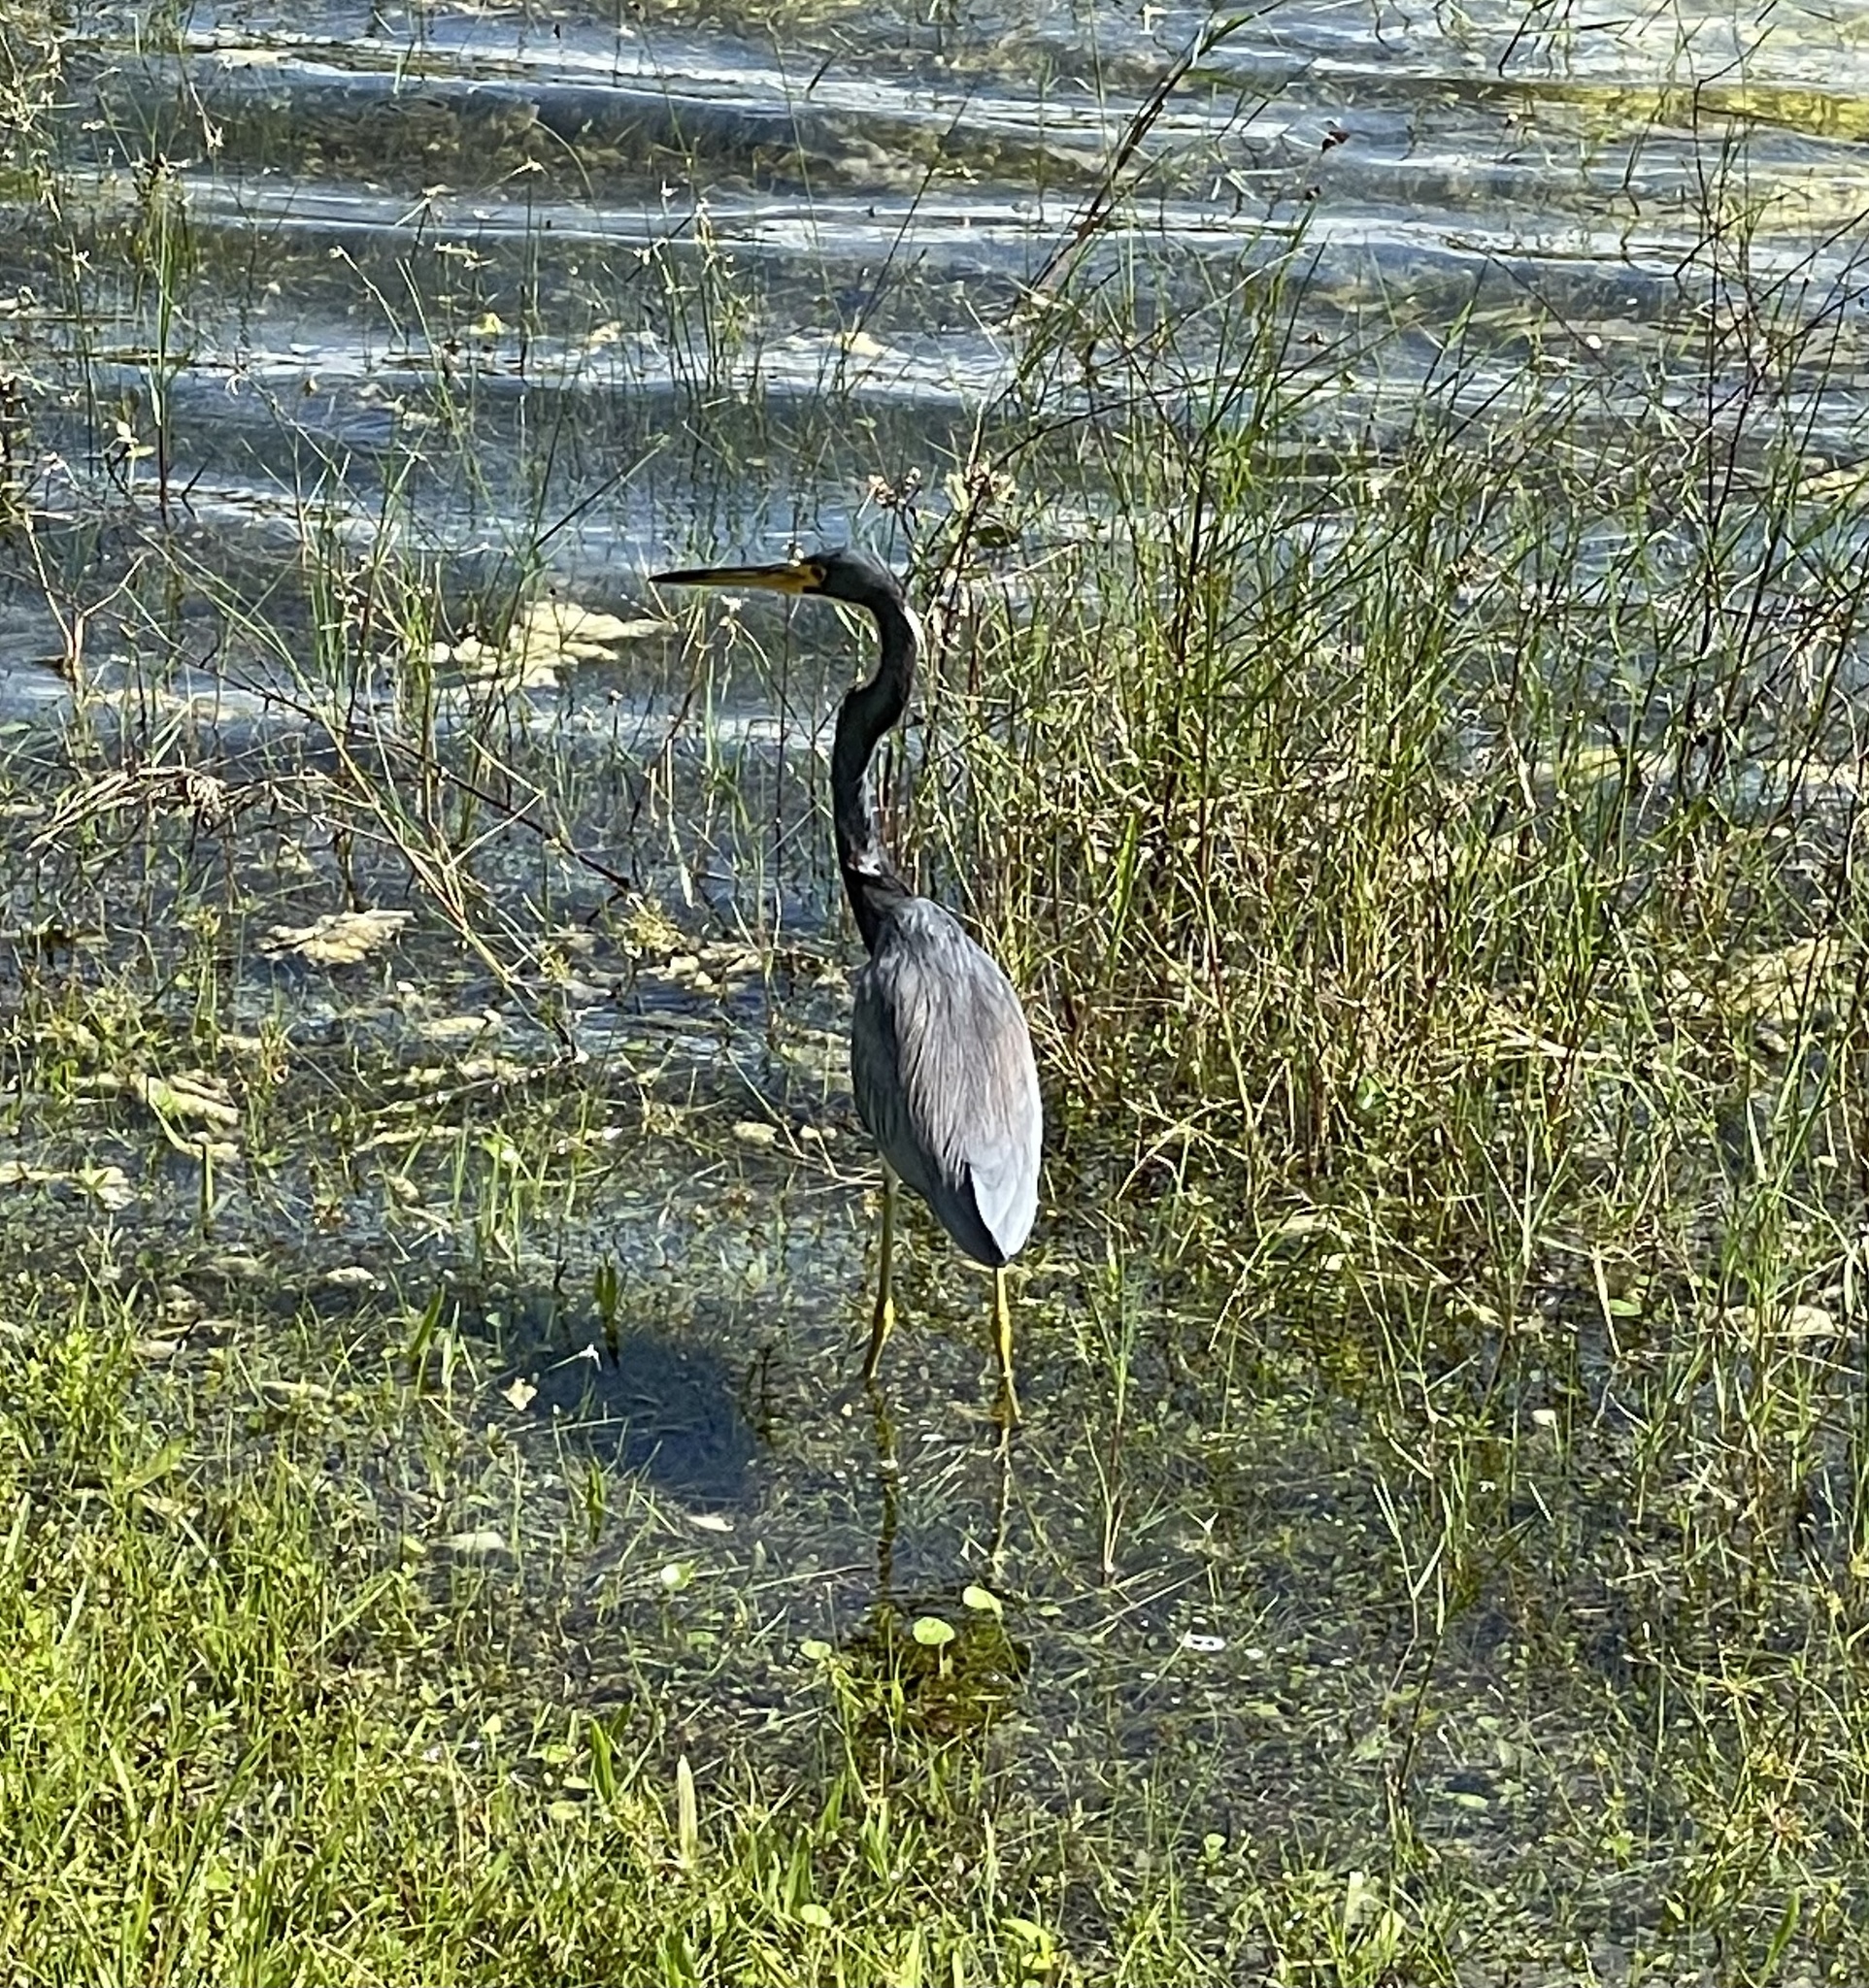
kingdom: Animalia
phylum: Chordata
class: Aves
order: Pelecaniformes
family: Ardeidae
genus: Egretta
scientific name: Egretta tricolor
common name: Tricolored heron
